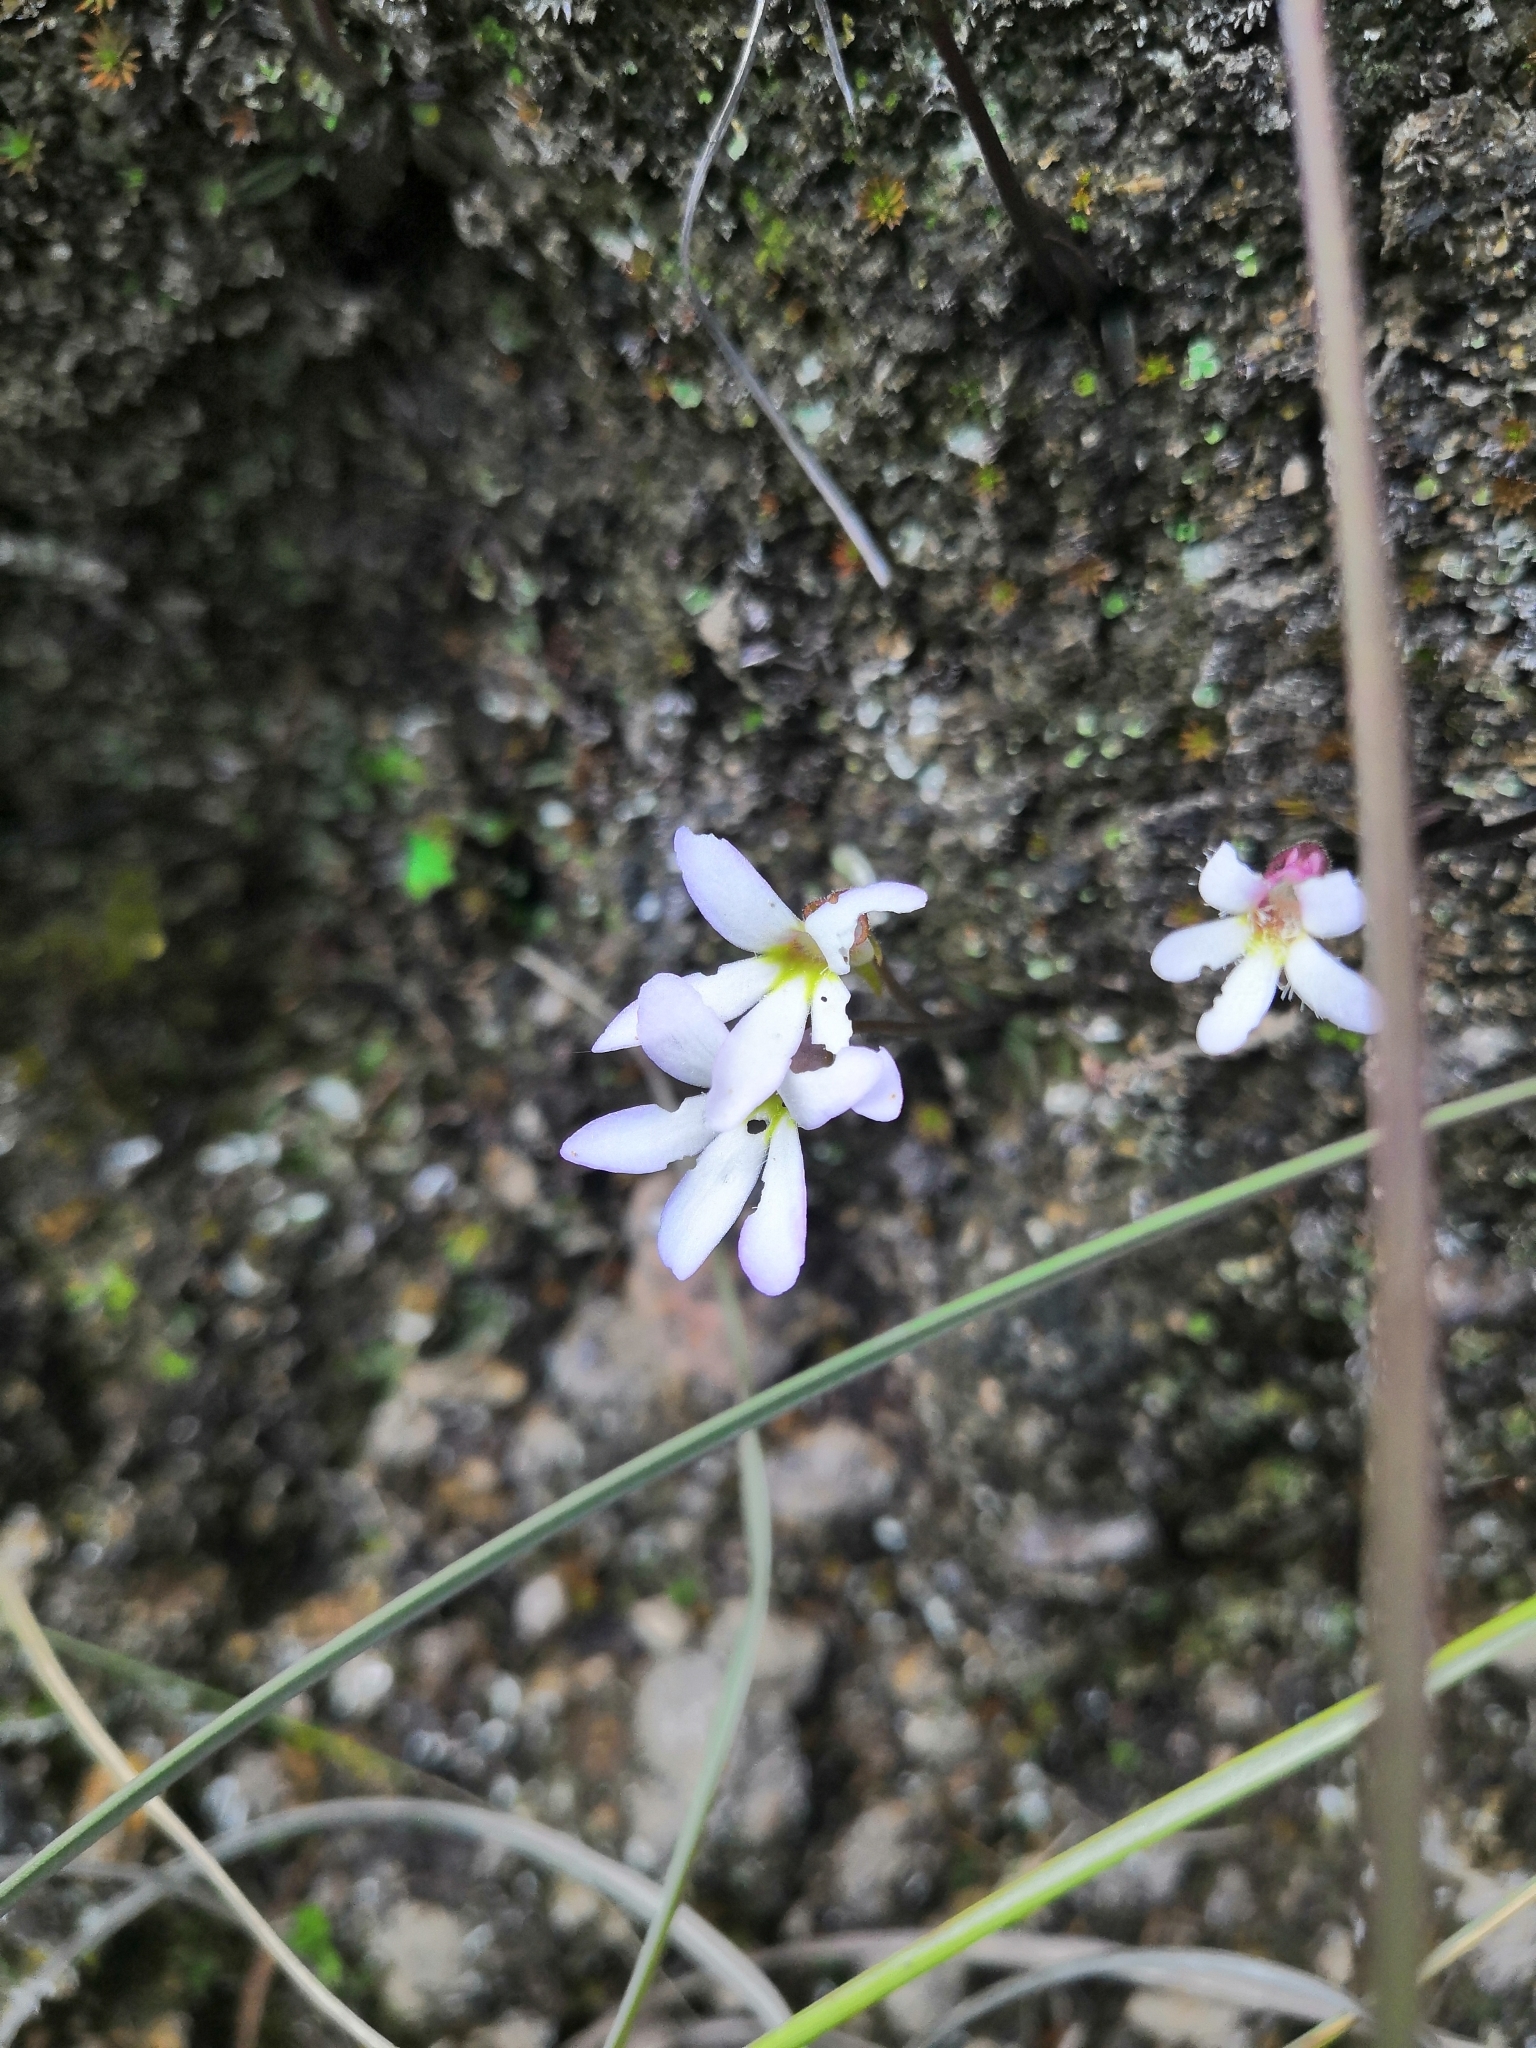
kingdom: Plantae
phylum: Tracheophyta
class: Magnoliopsida
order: Lamiales
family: Lentibulariaceae
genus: Pinguicula
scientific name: Pinguicula parvifolia
